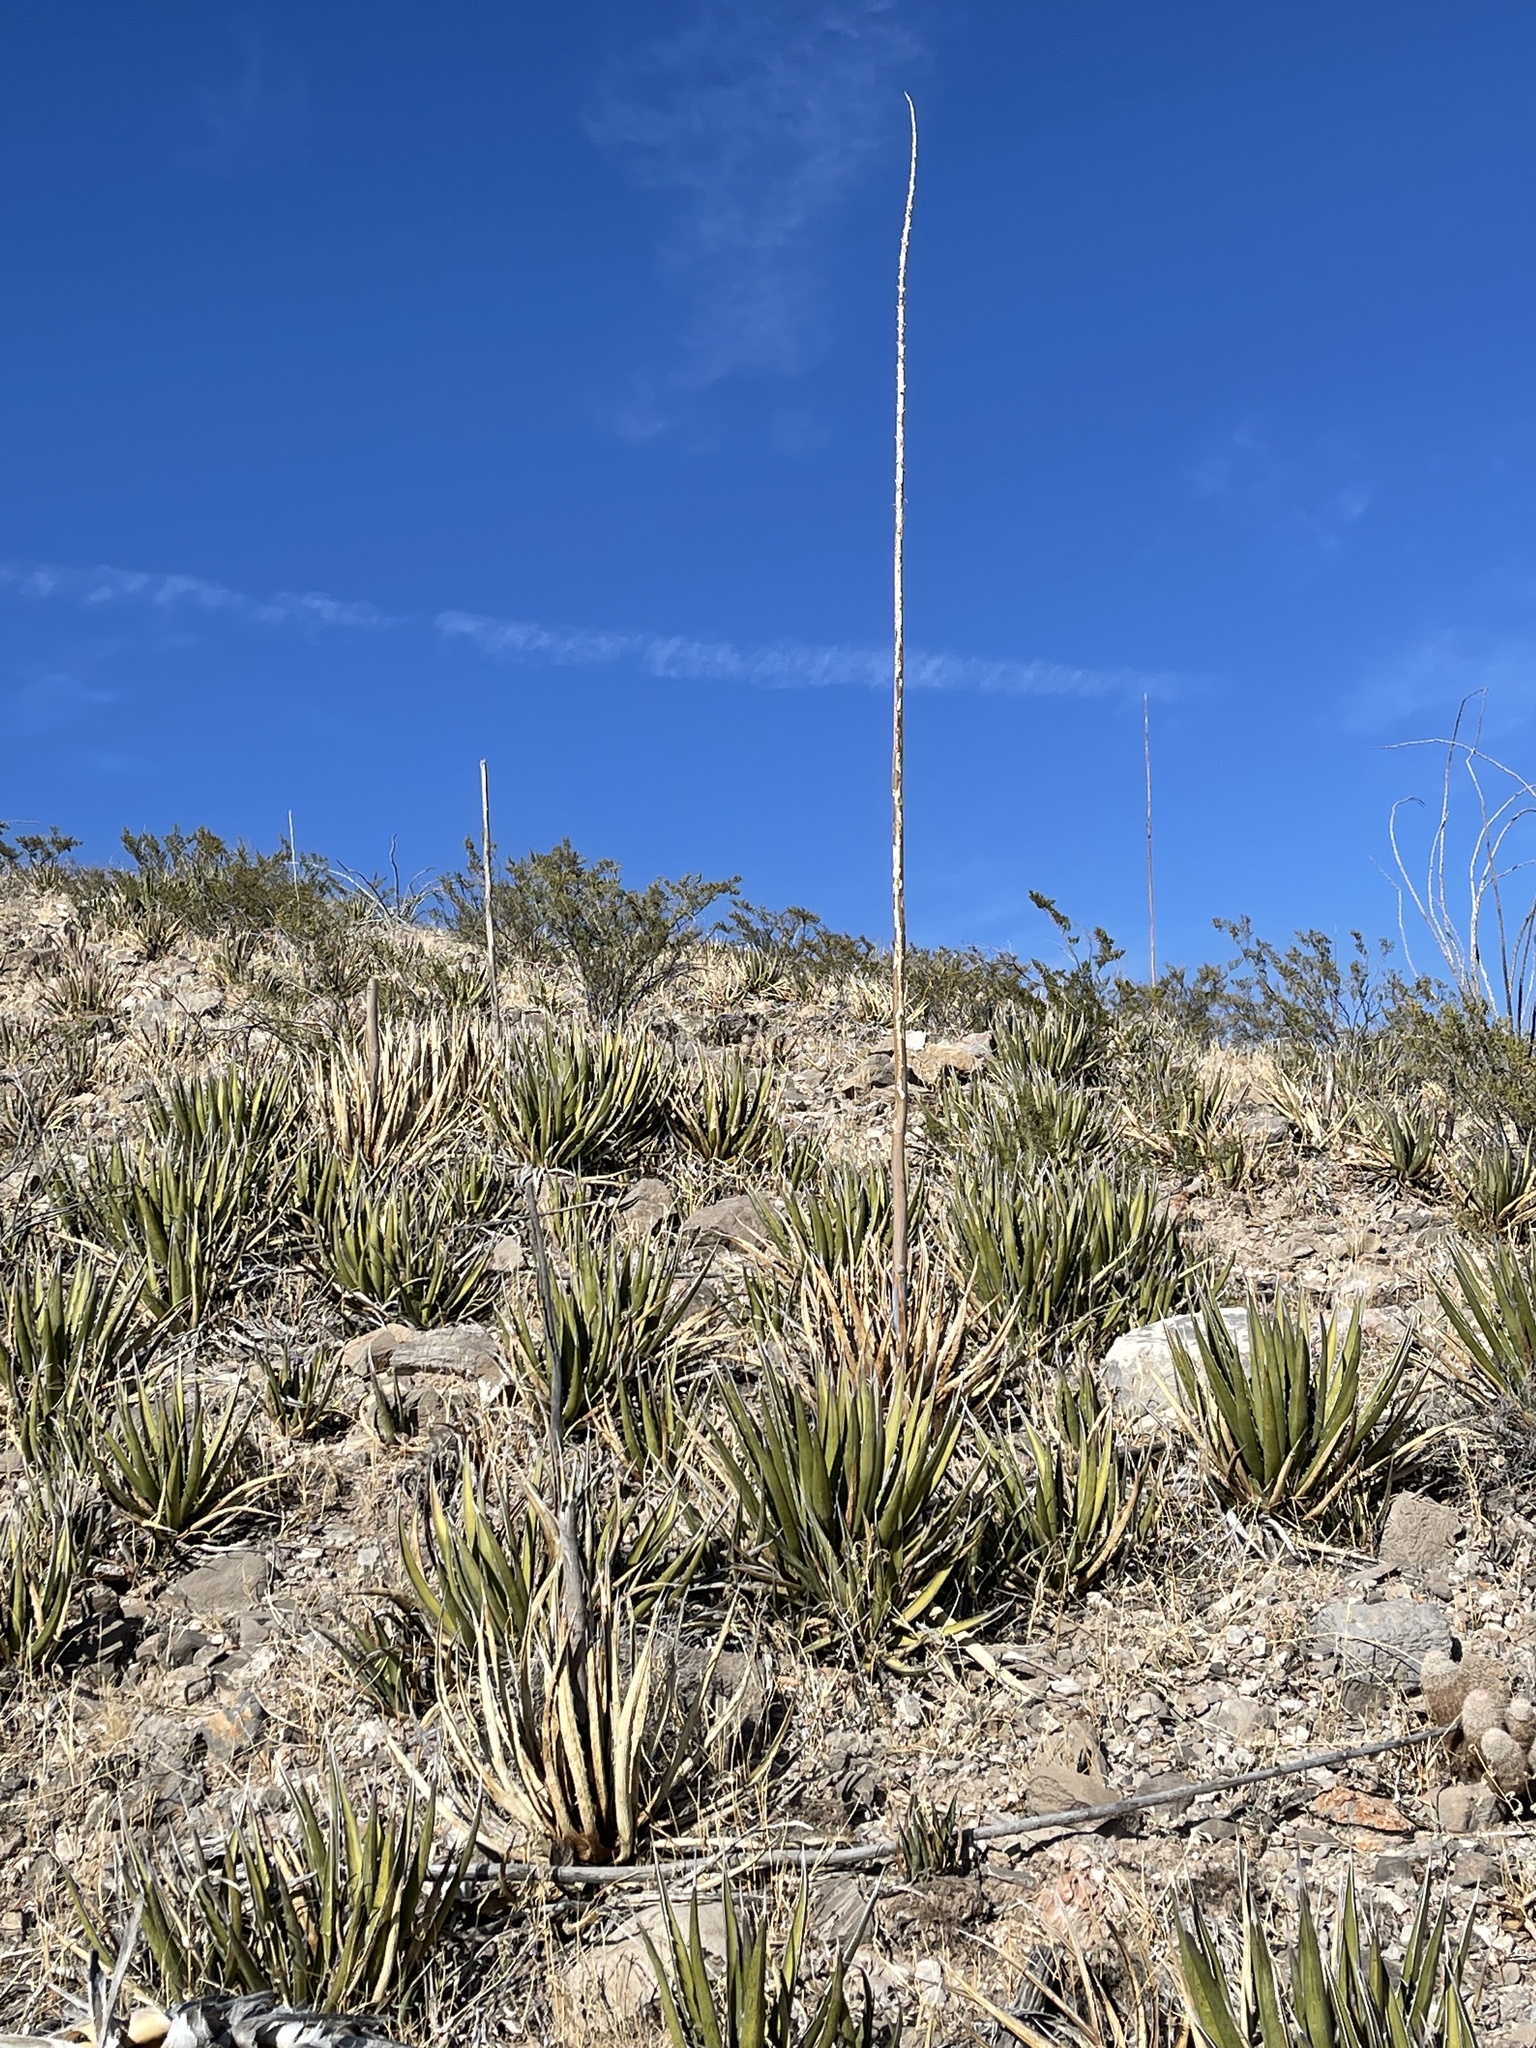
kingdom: Plantae
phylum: Tracheophyta
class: Liliopsida
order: Asparagales
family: Asparagaceae
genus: Agave
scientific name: Agave lechuguilla
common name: Lecheguilla agave
